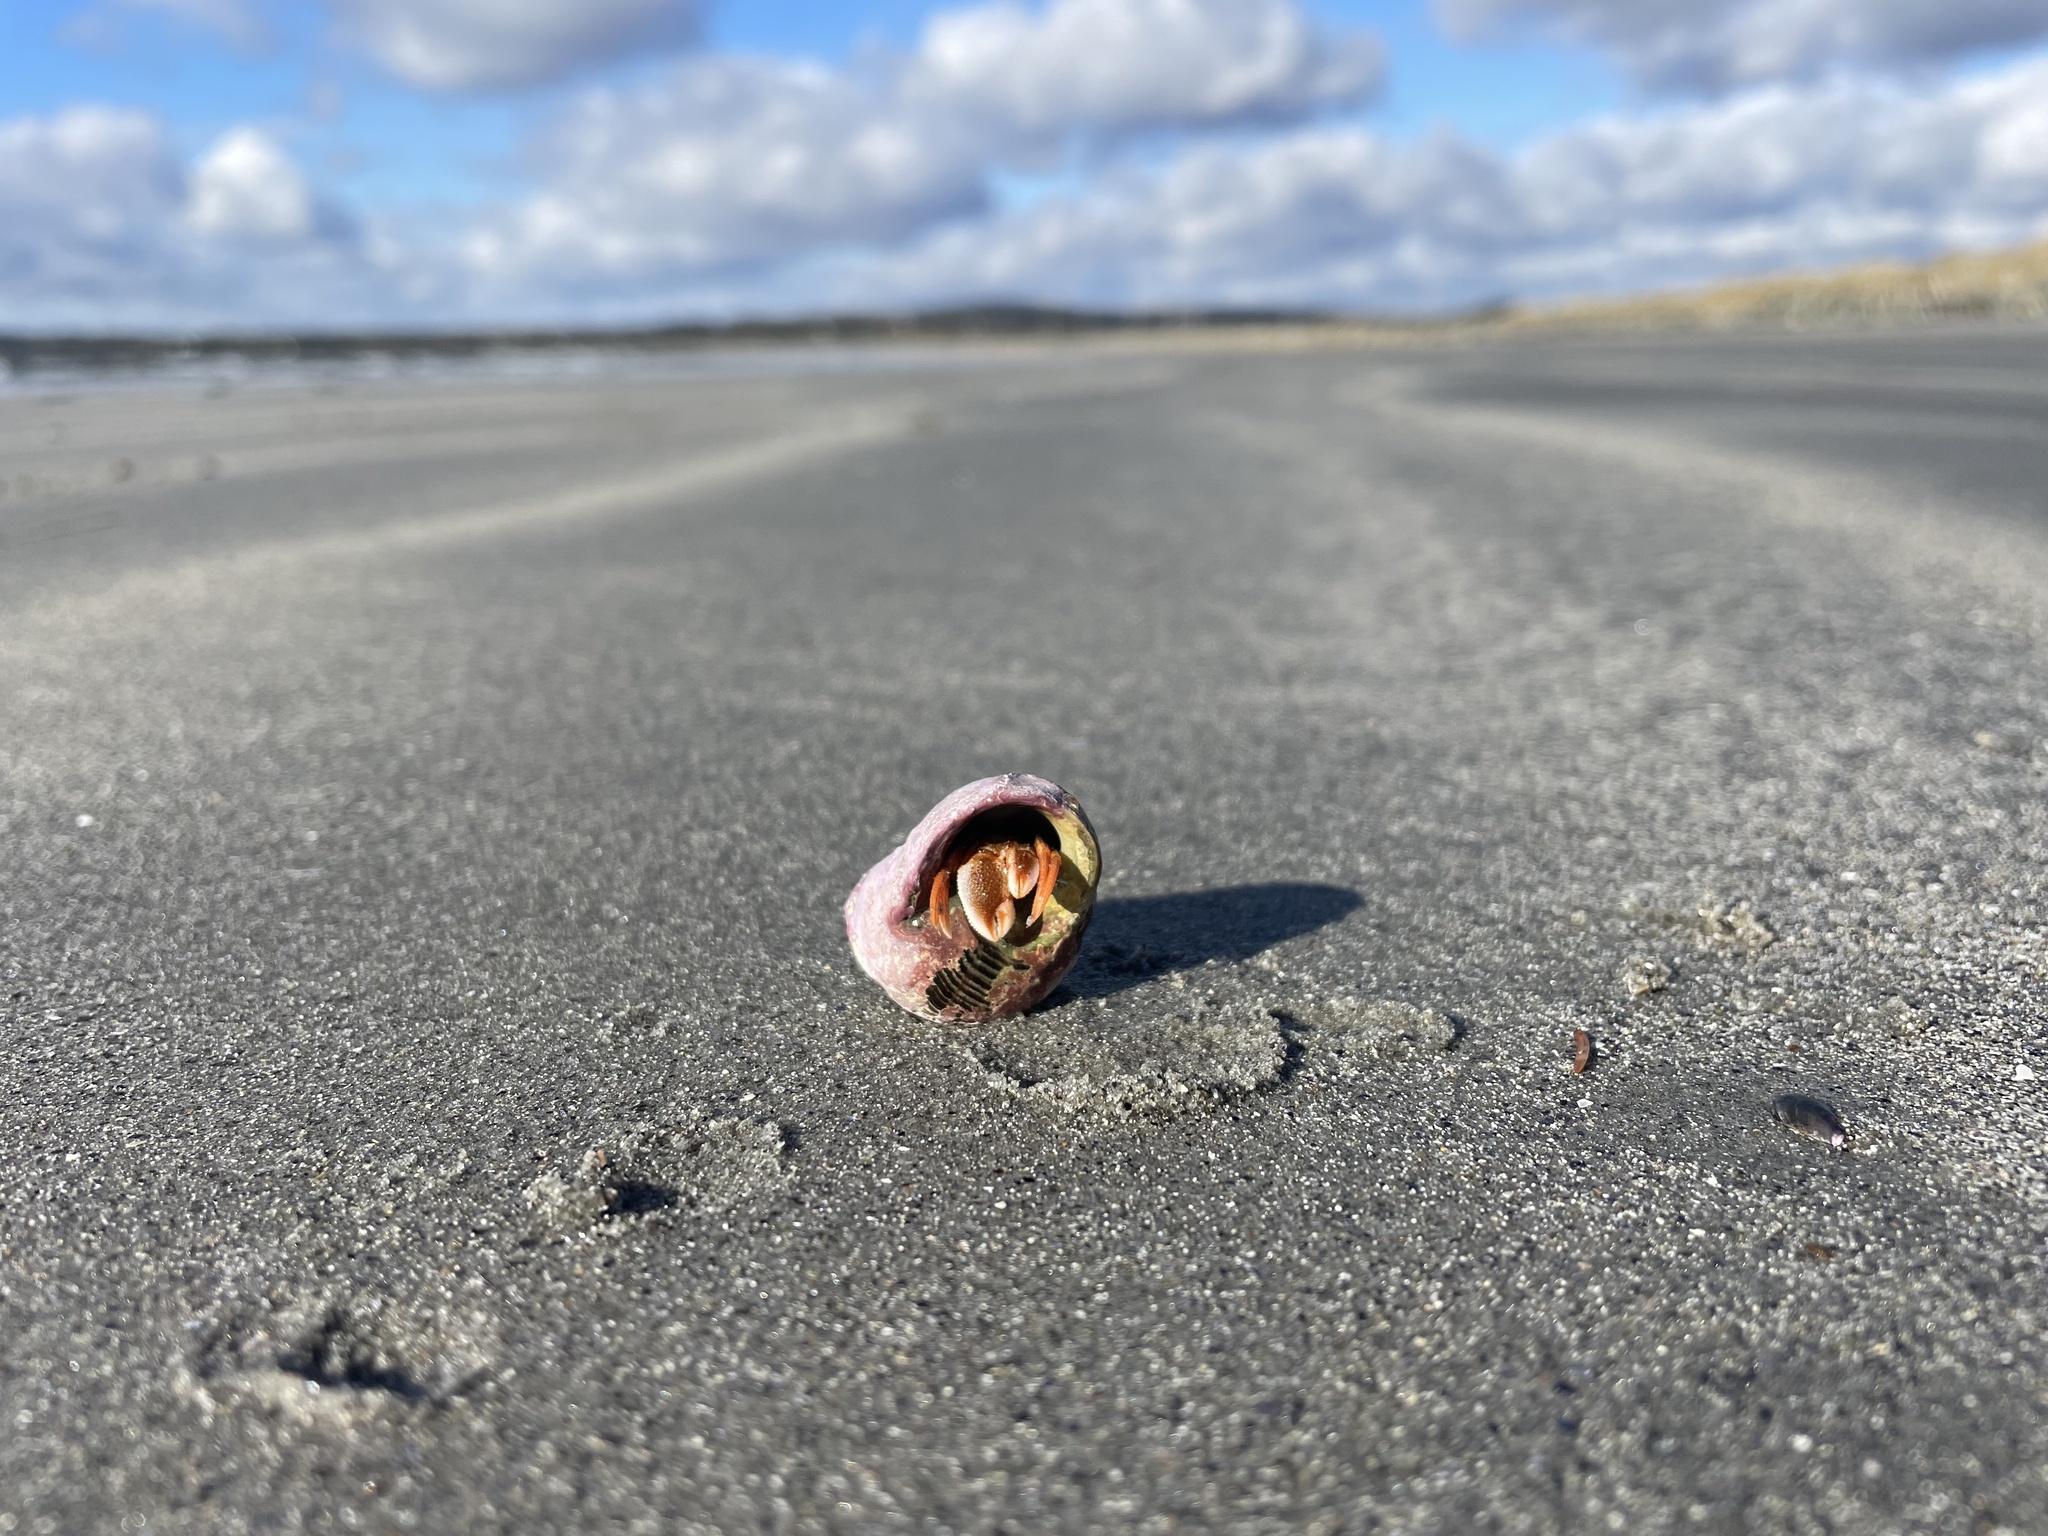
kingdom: Animalia
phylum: Arthropoda
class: Malacostraca
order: Decapoda
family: Paguridae
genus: Pagurus
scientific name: Pagurus acadianus
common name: Acadian hermit crab
